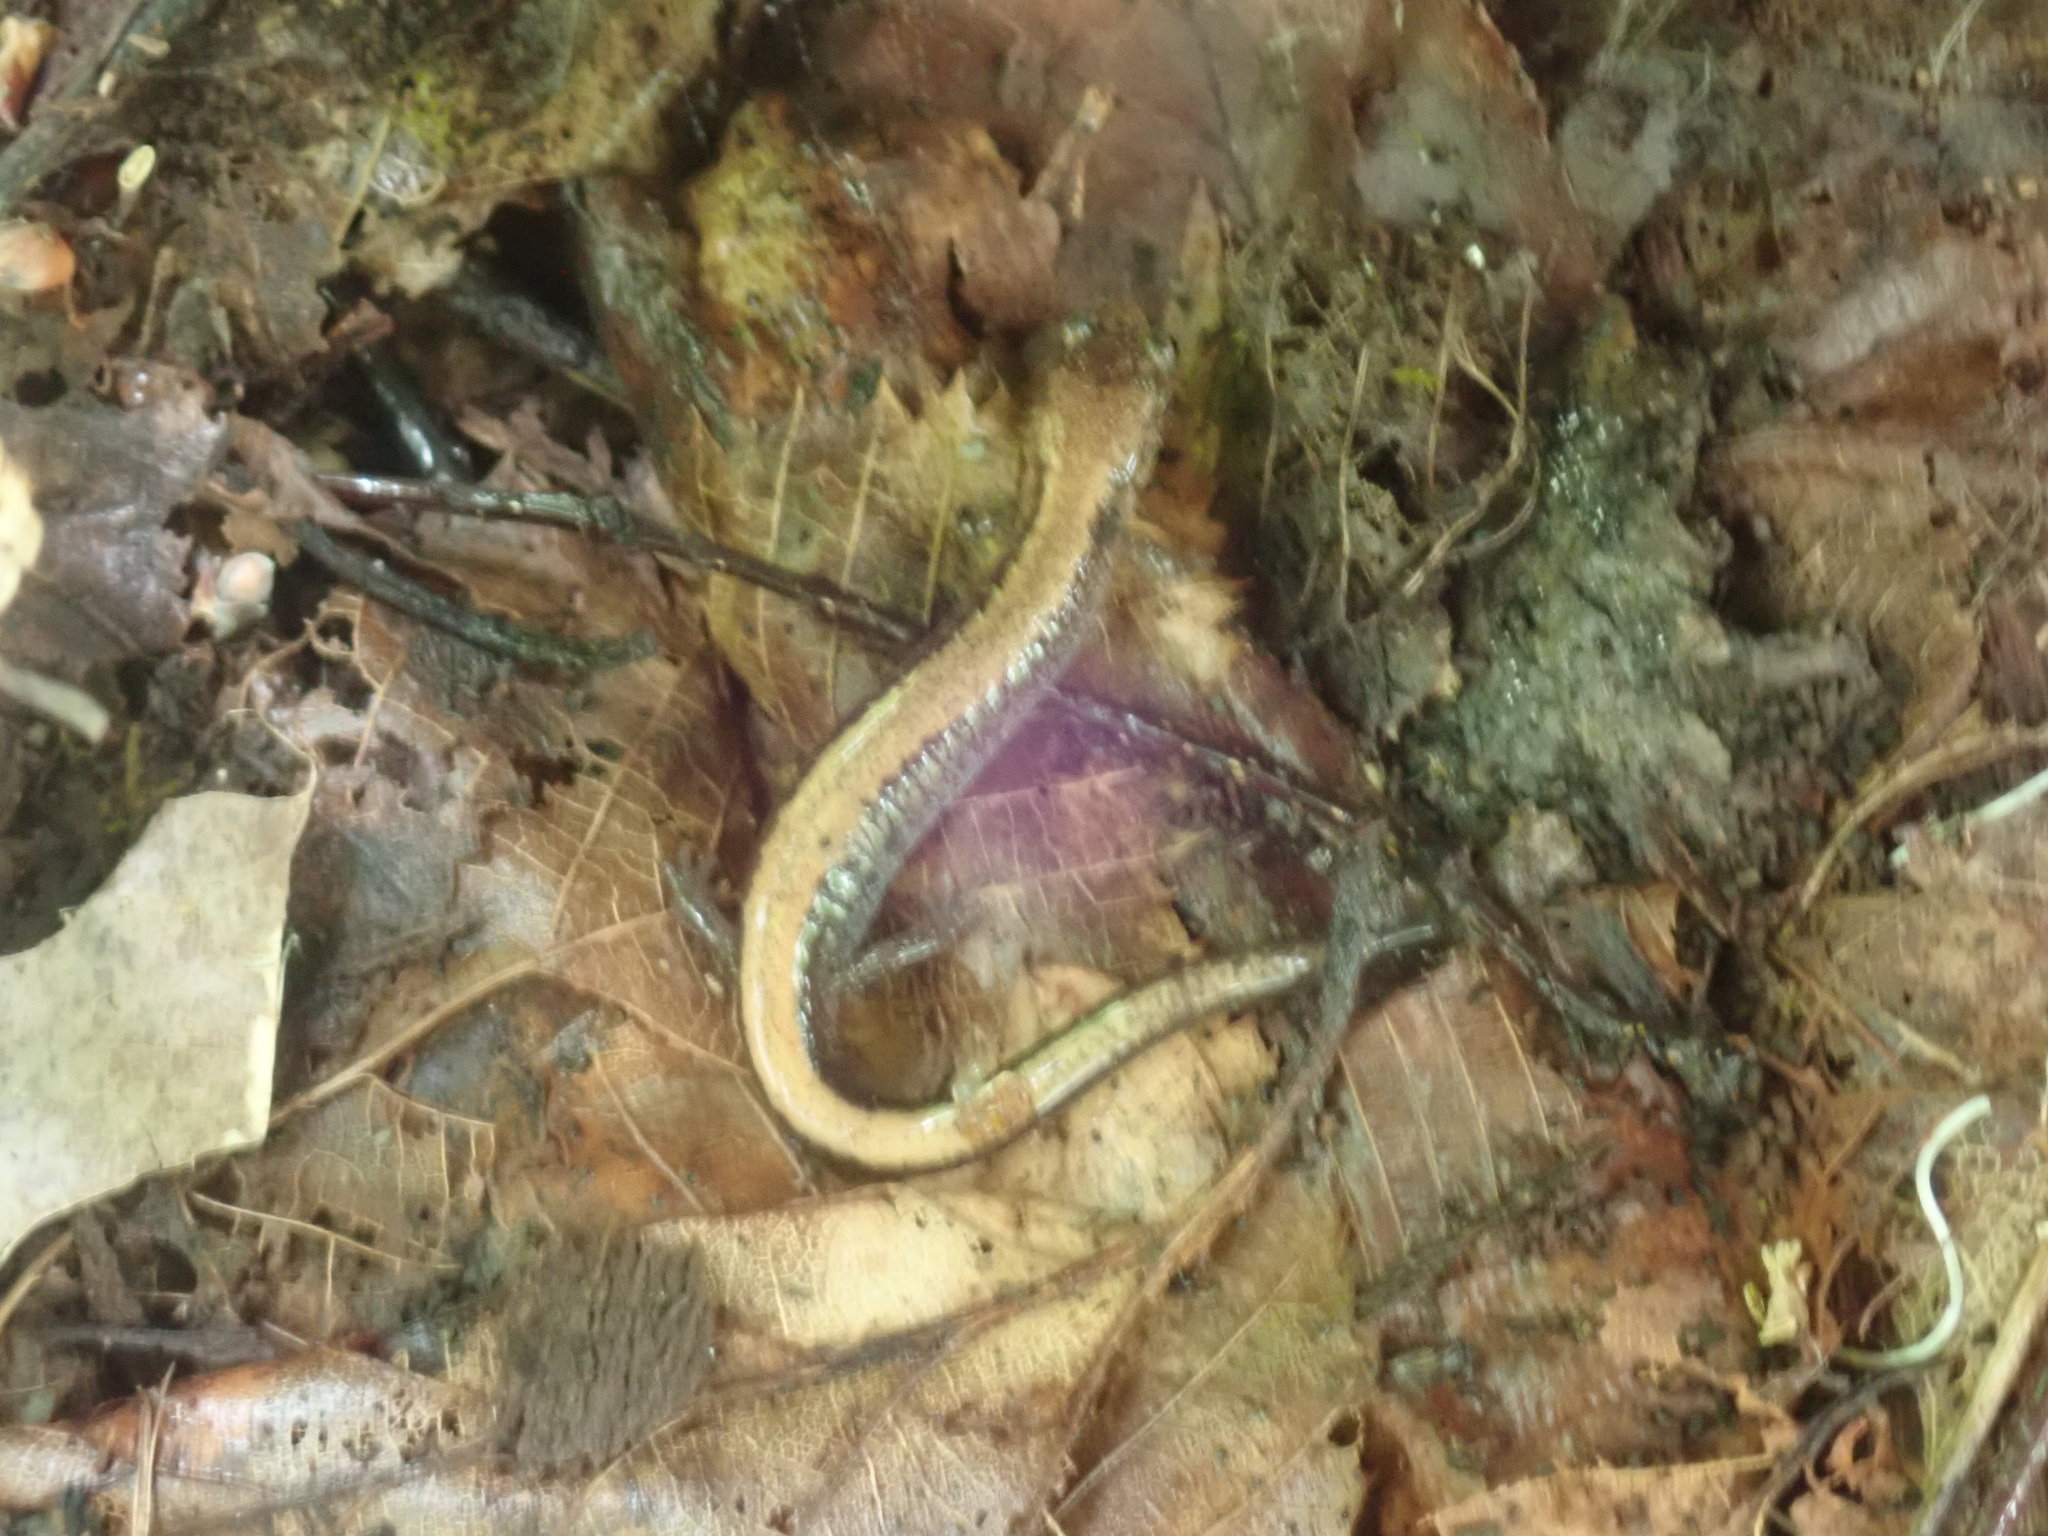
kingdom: Animalia
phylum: Chordata
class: Amphibia
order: Caudata
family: Plethodontidae
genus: Plethodon
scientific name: Plethodon cinereus
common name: Redback salamander
